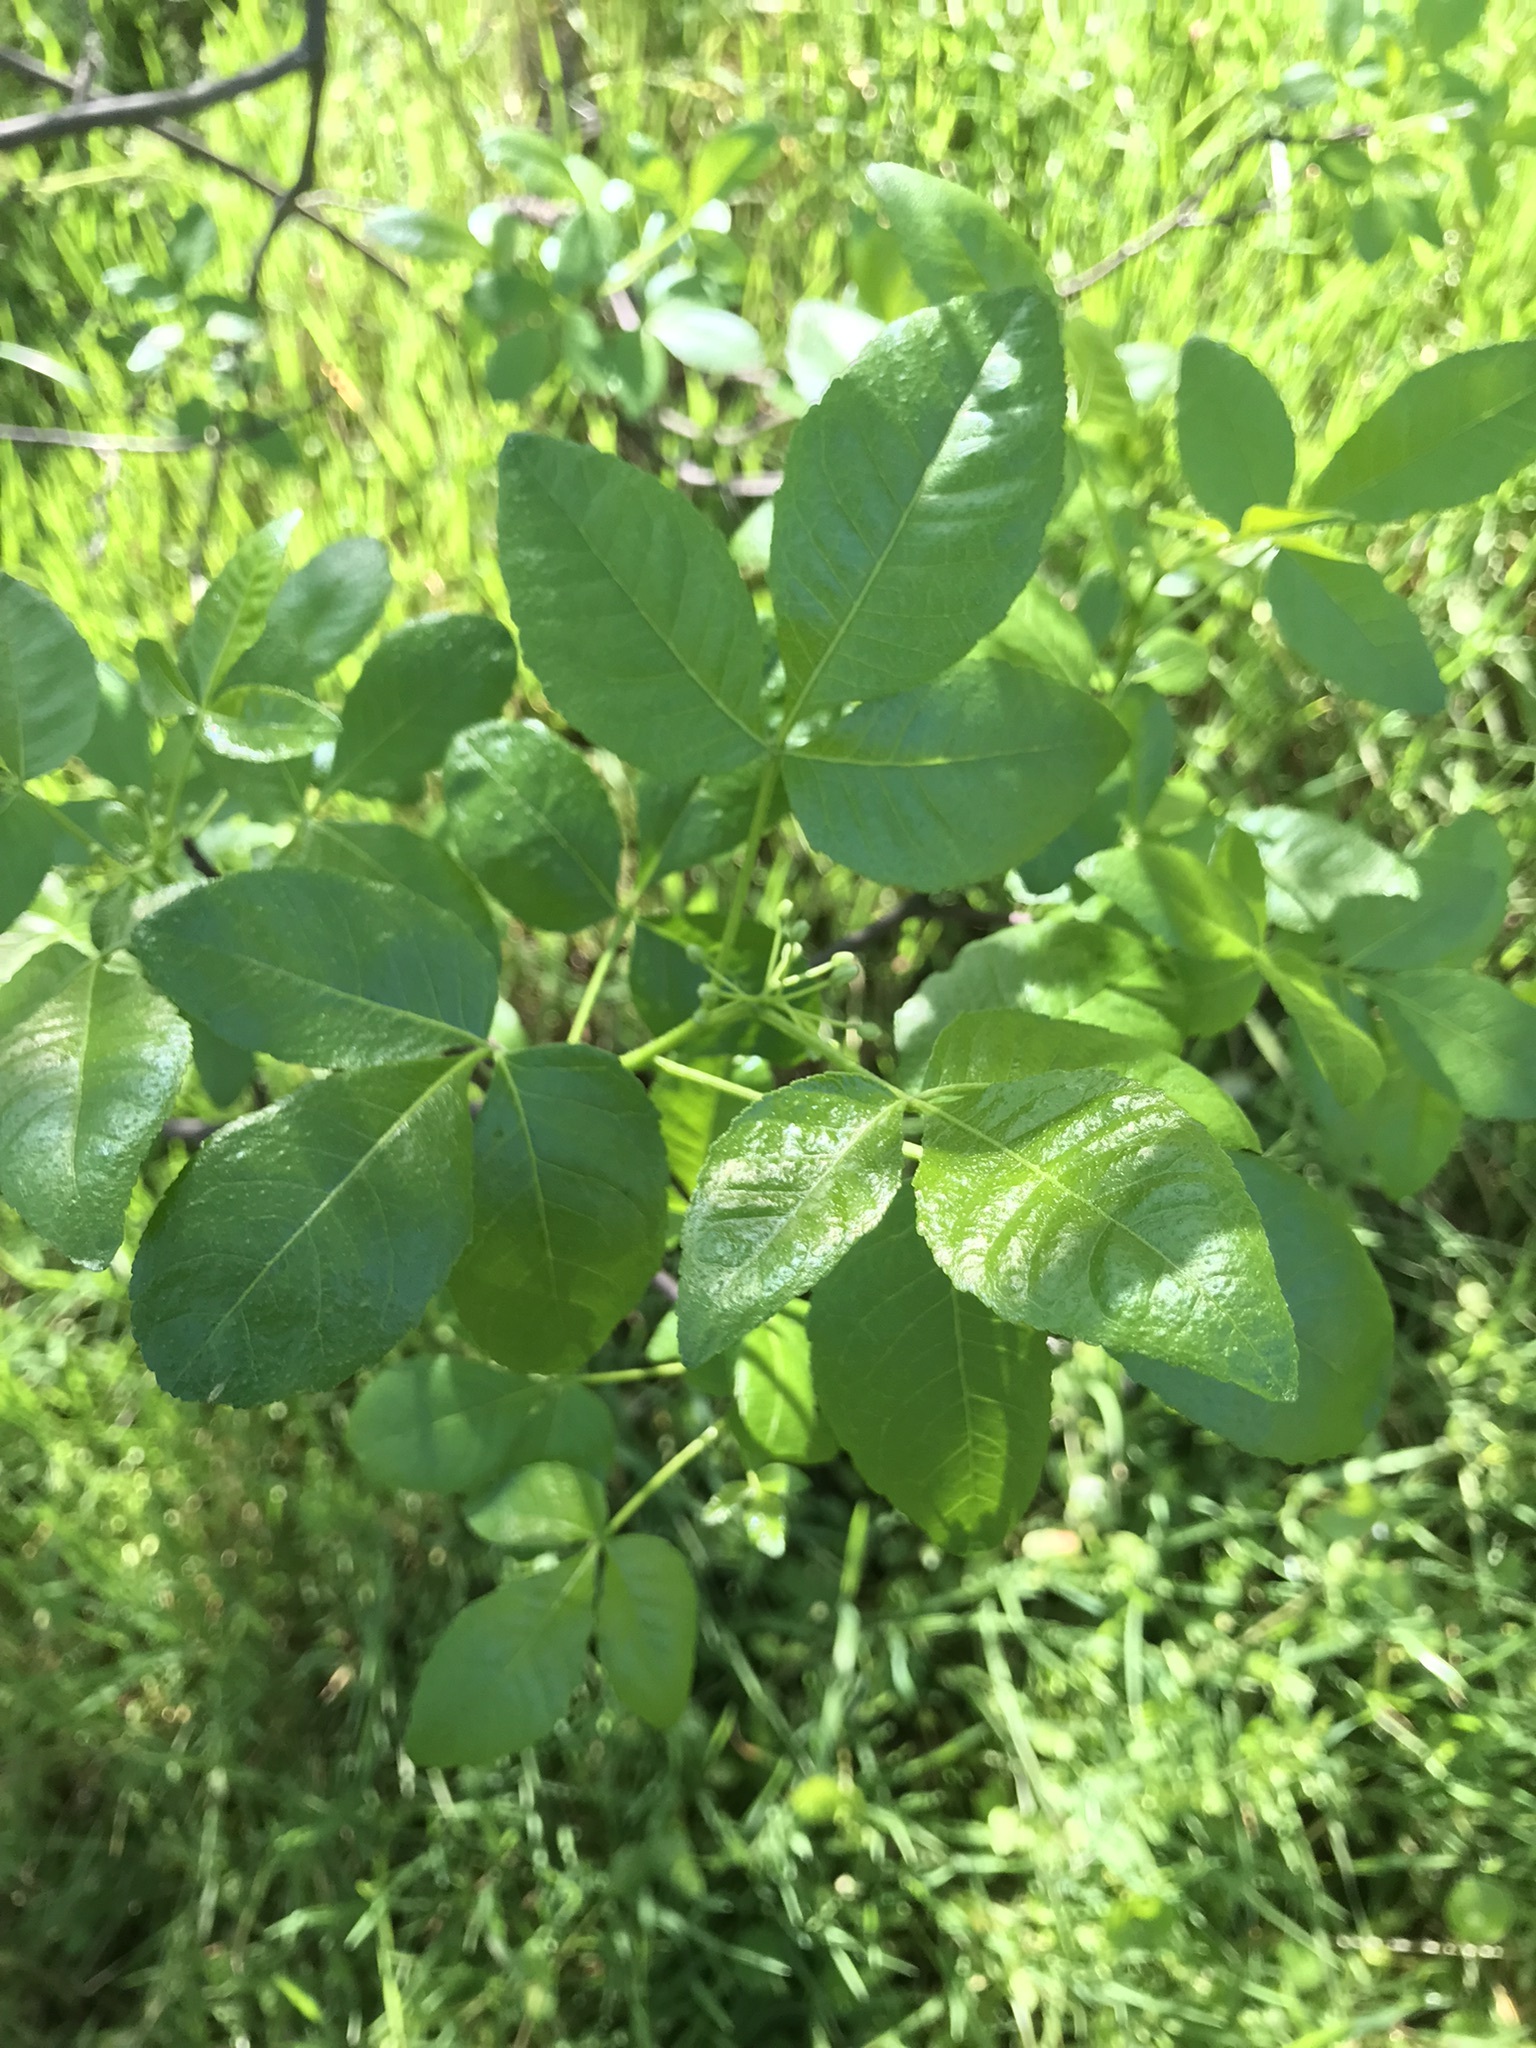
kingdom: Plantae
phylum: Tracheophyta
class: Magnoliopsida
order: Sapindales
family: Rutaceae
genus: Ptelea
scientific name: Ptelea crenulata
